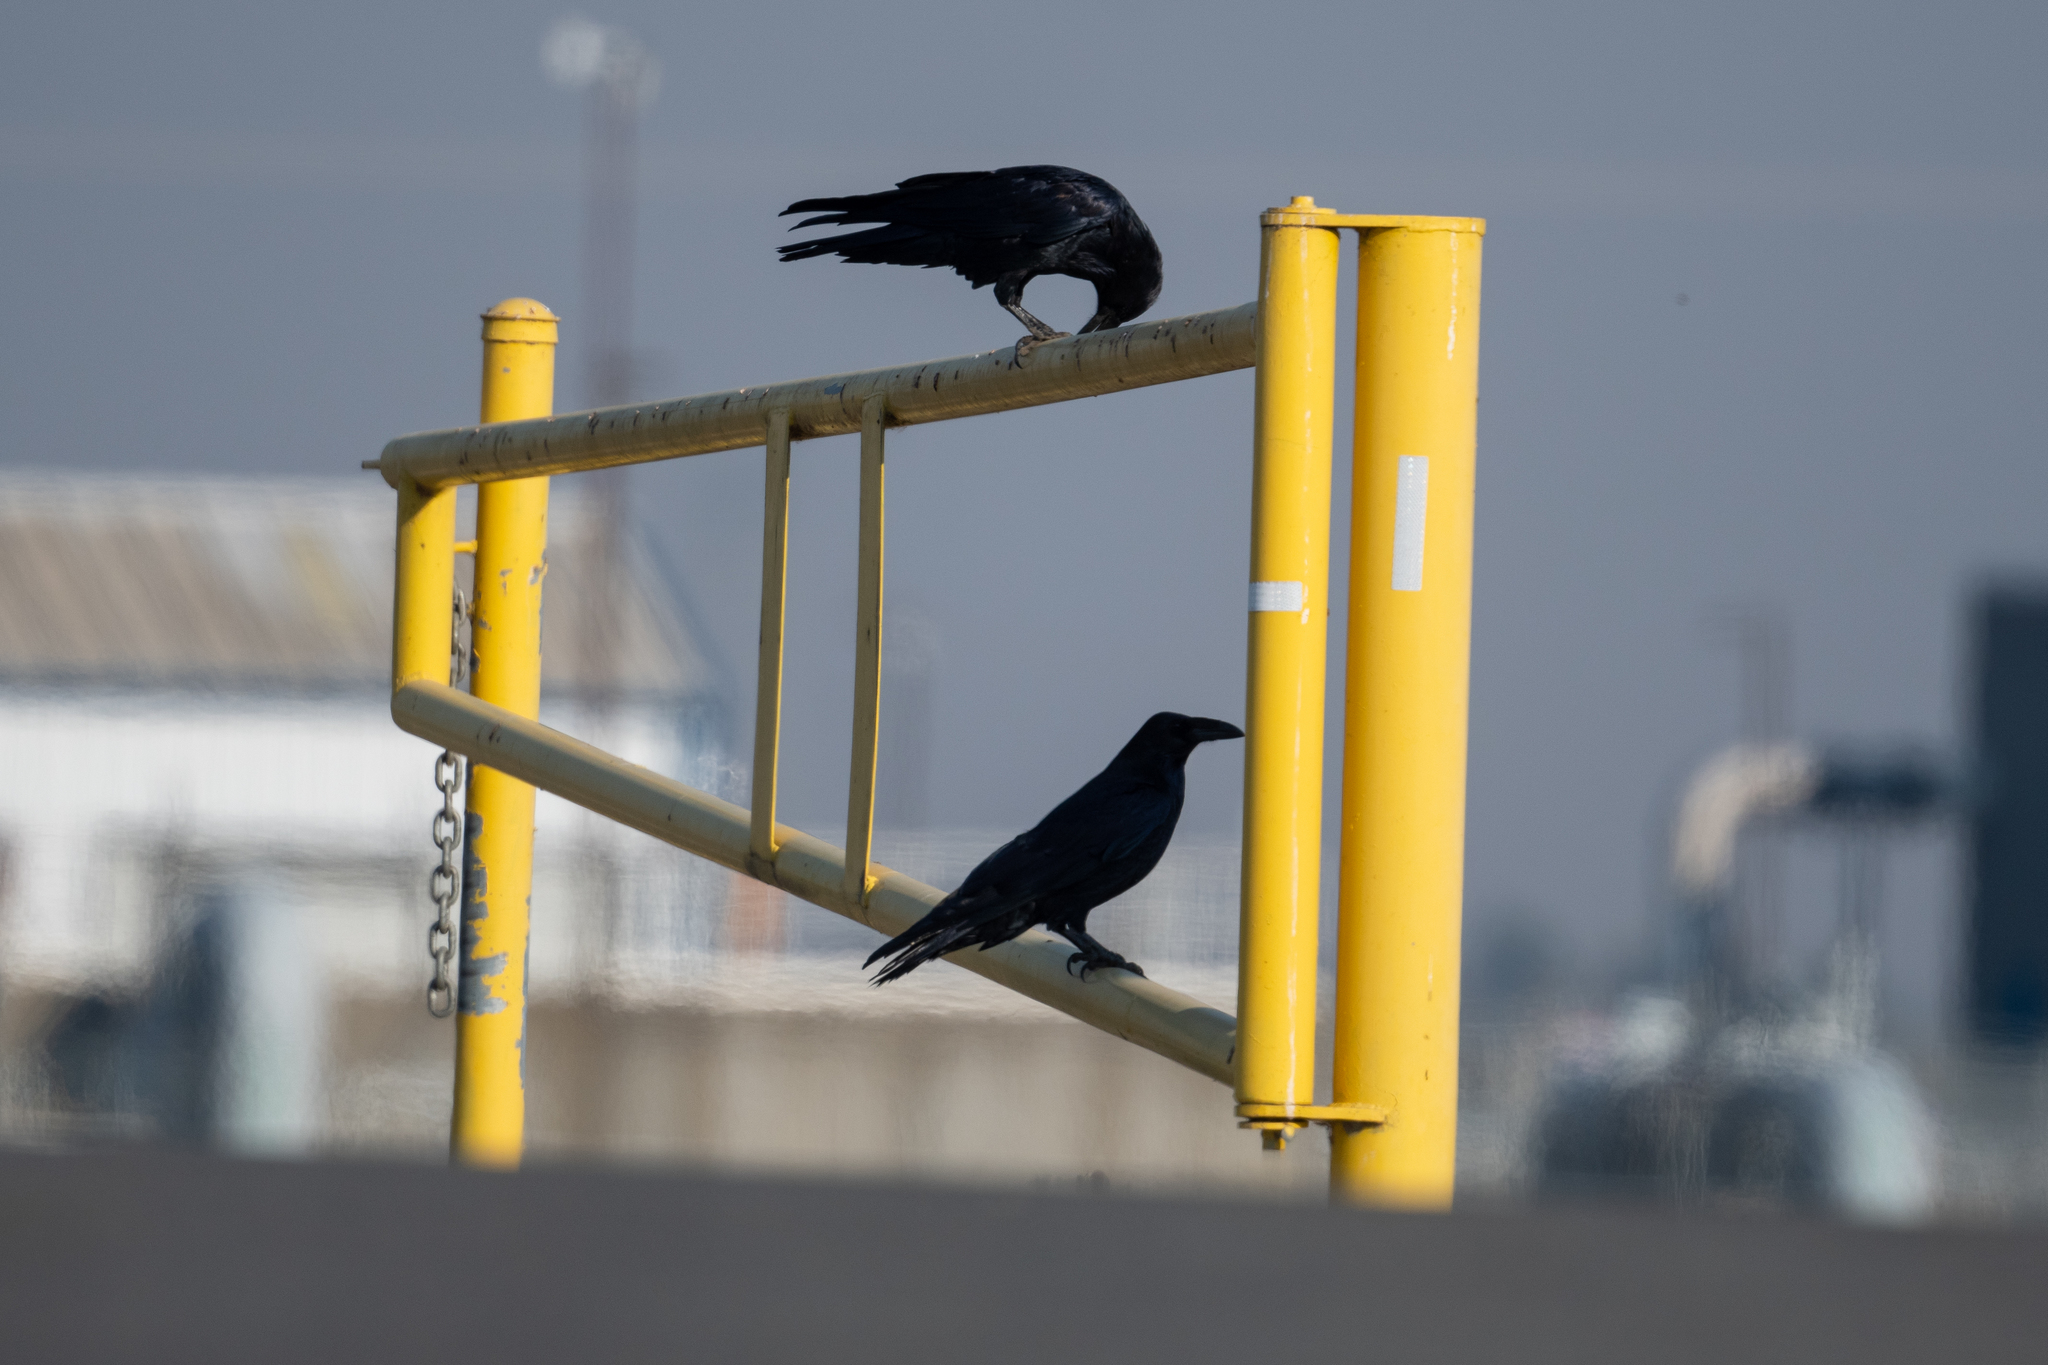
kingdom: Animalia
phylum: Chordata
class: Aves
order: Passeriformes
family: Corvidae
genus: Corvus
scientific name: Corvus corax
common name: Common raven
